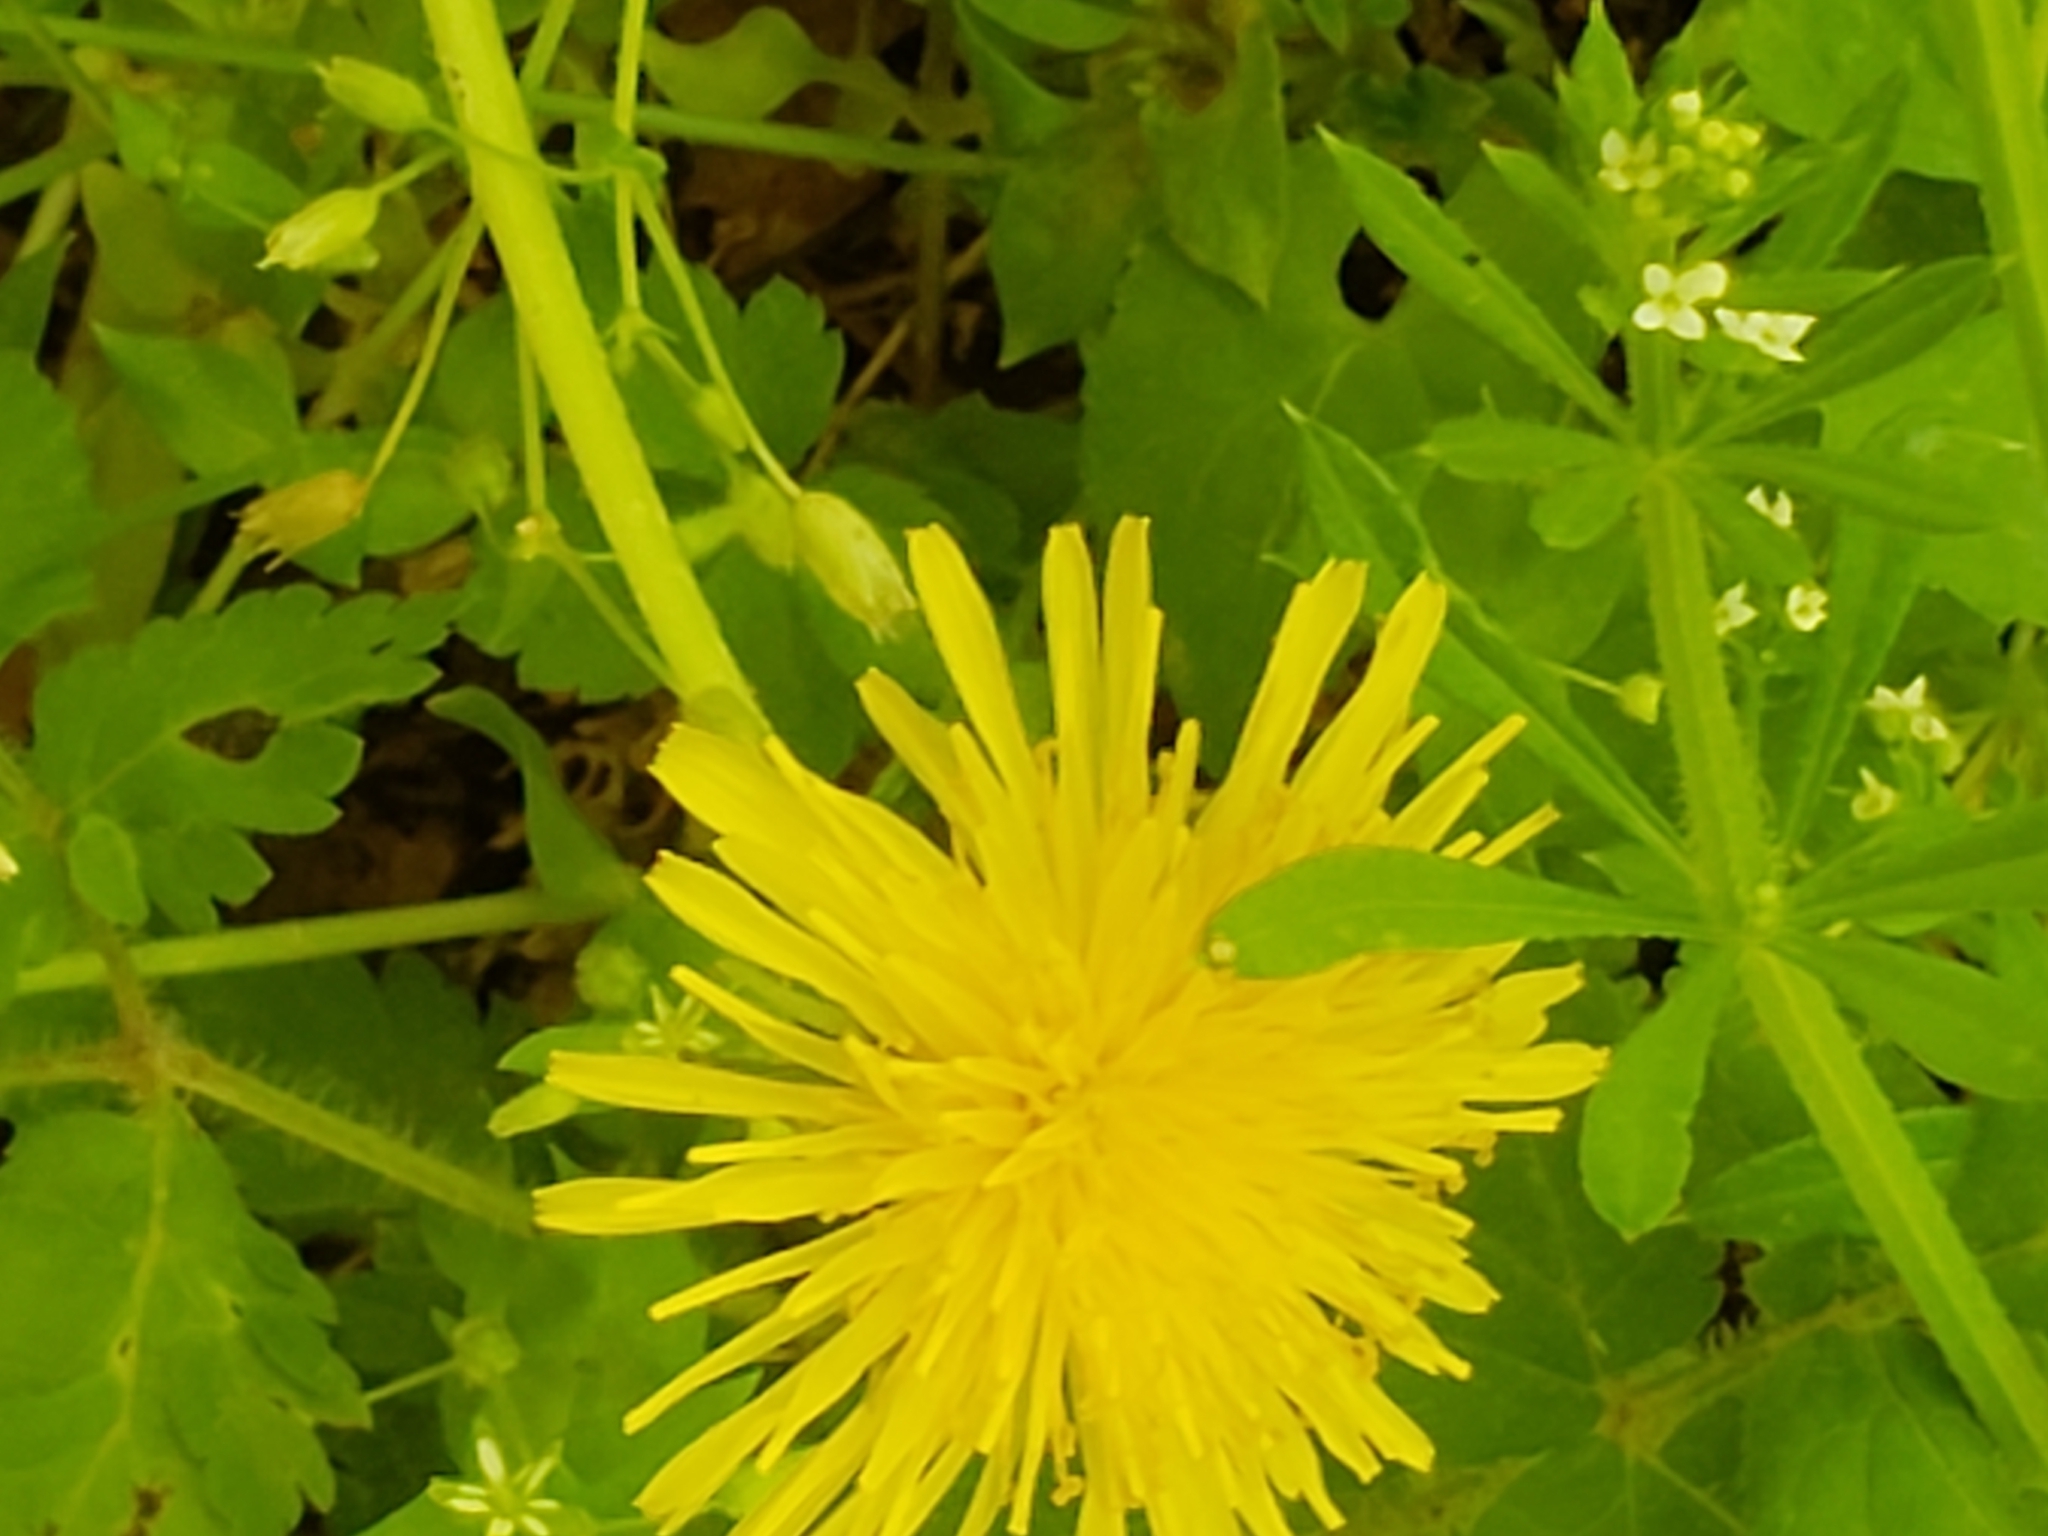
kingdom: Plantae
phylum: Tracheophyta
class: Magnoliopsida
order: Asterales
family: Asteraceae
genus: Taraxacum
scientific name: Taraxacum officinale
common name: Common dandelion
